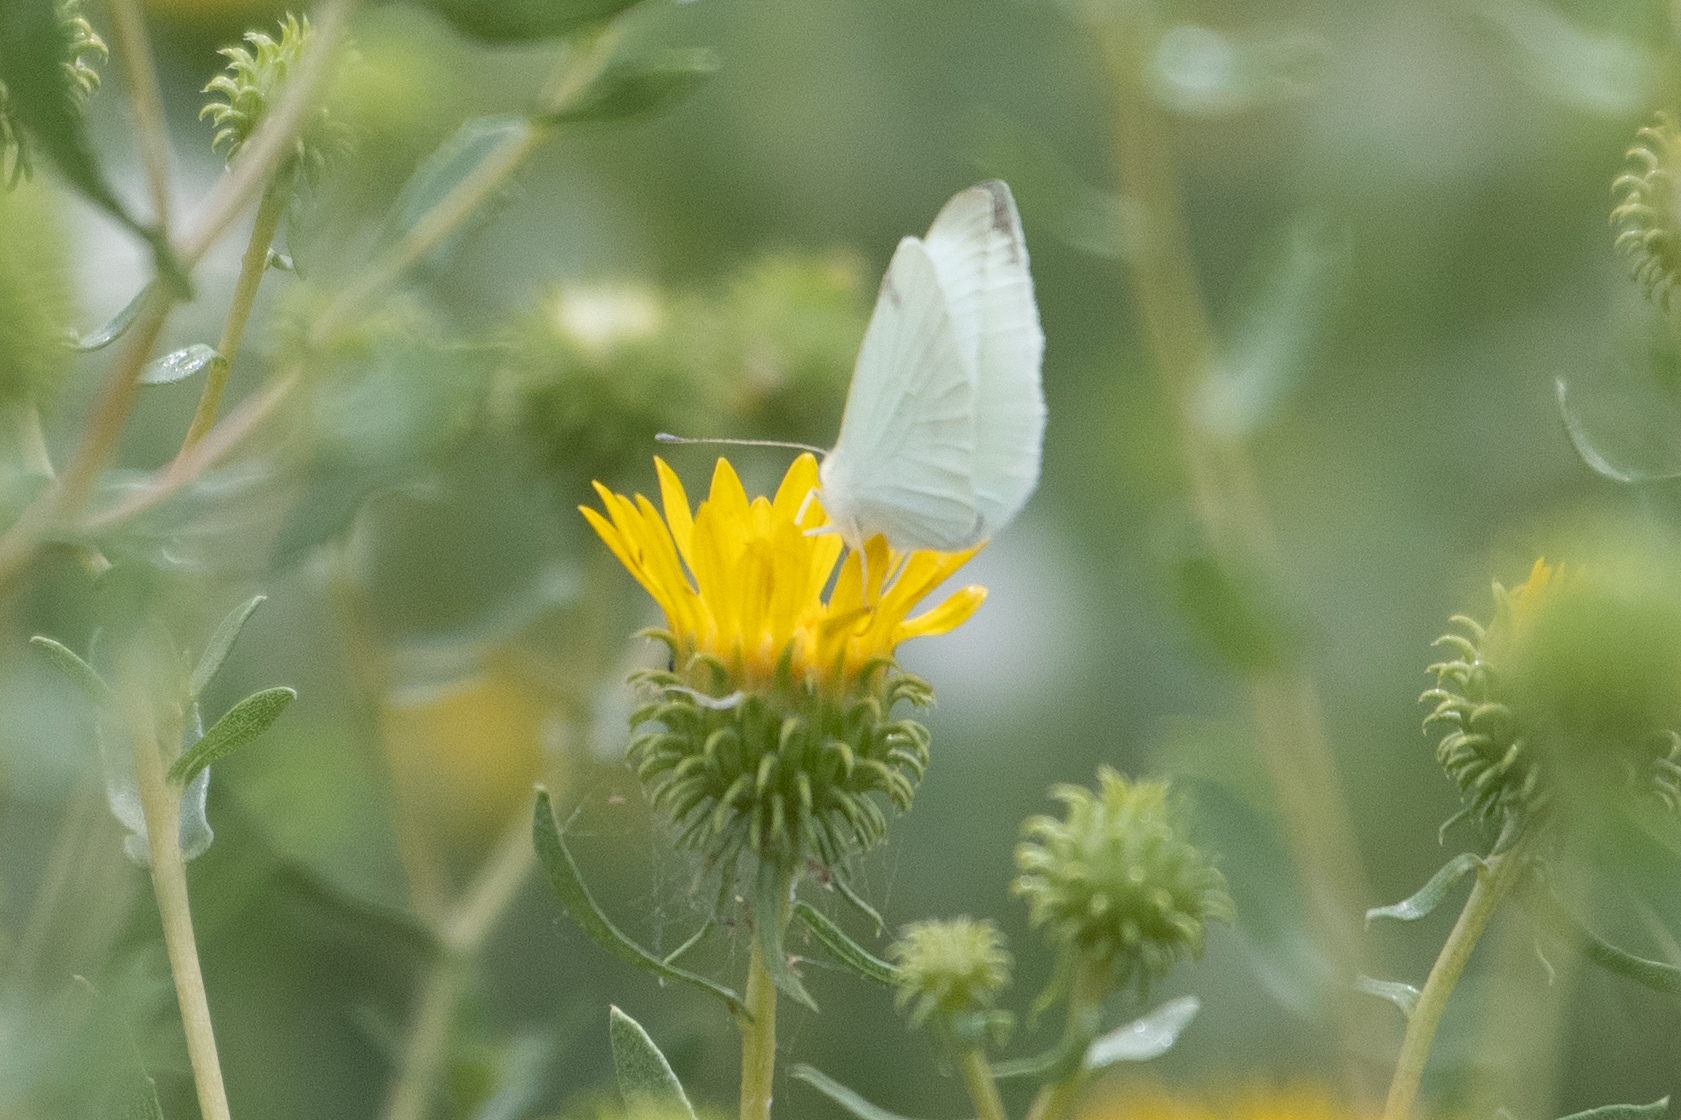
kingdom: Animalia
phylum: Arthropoda
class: Insecta
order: Lepidoptera
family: Pieridae
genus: Pieris
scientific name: Pieris rapae
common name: Small white
